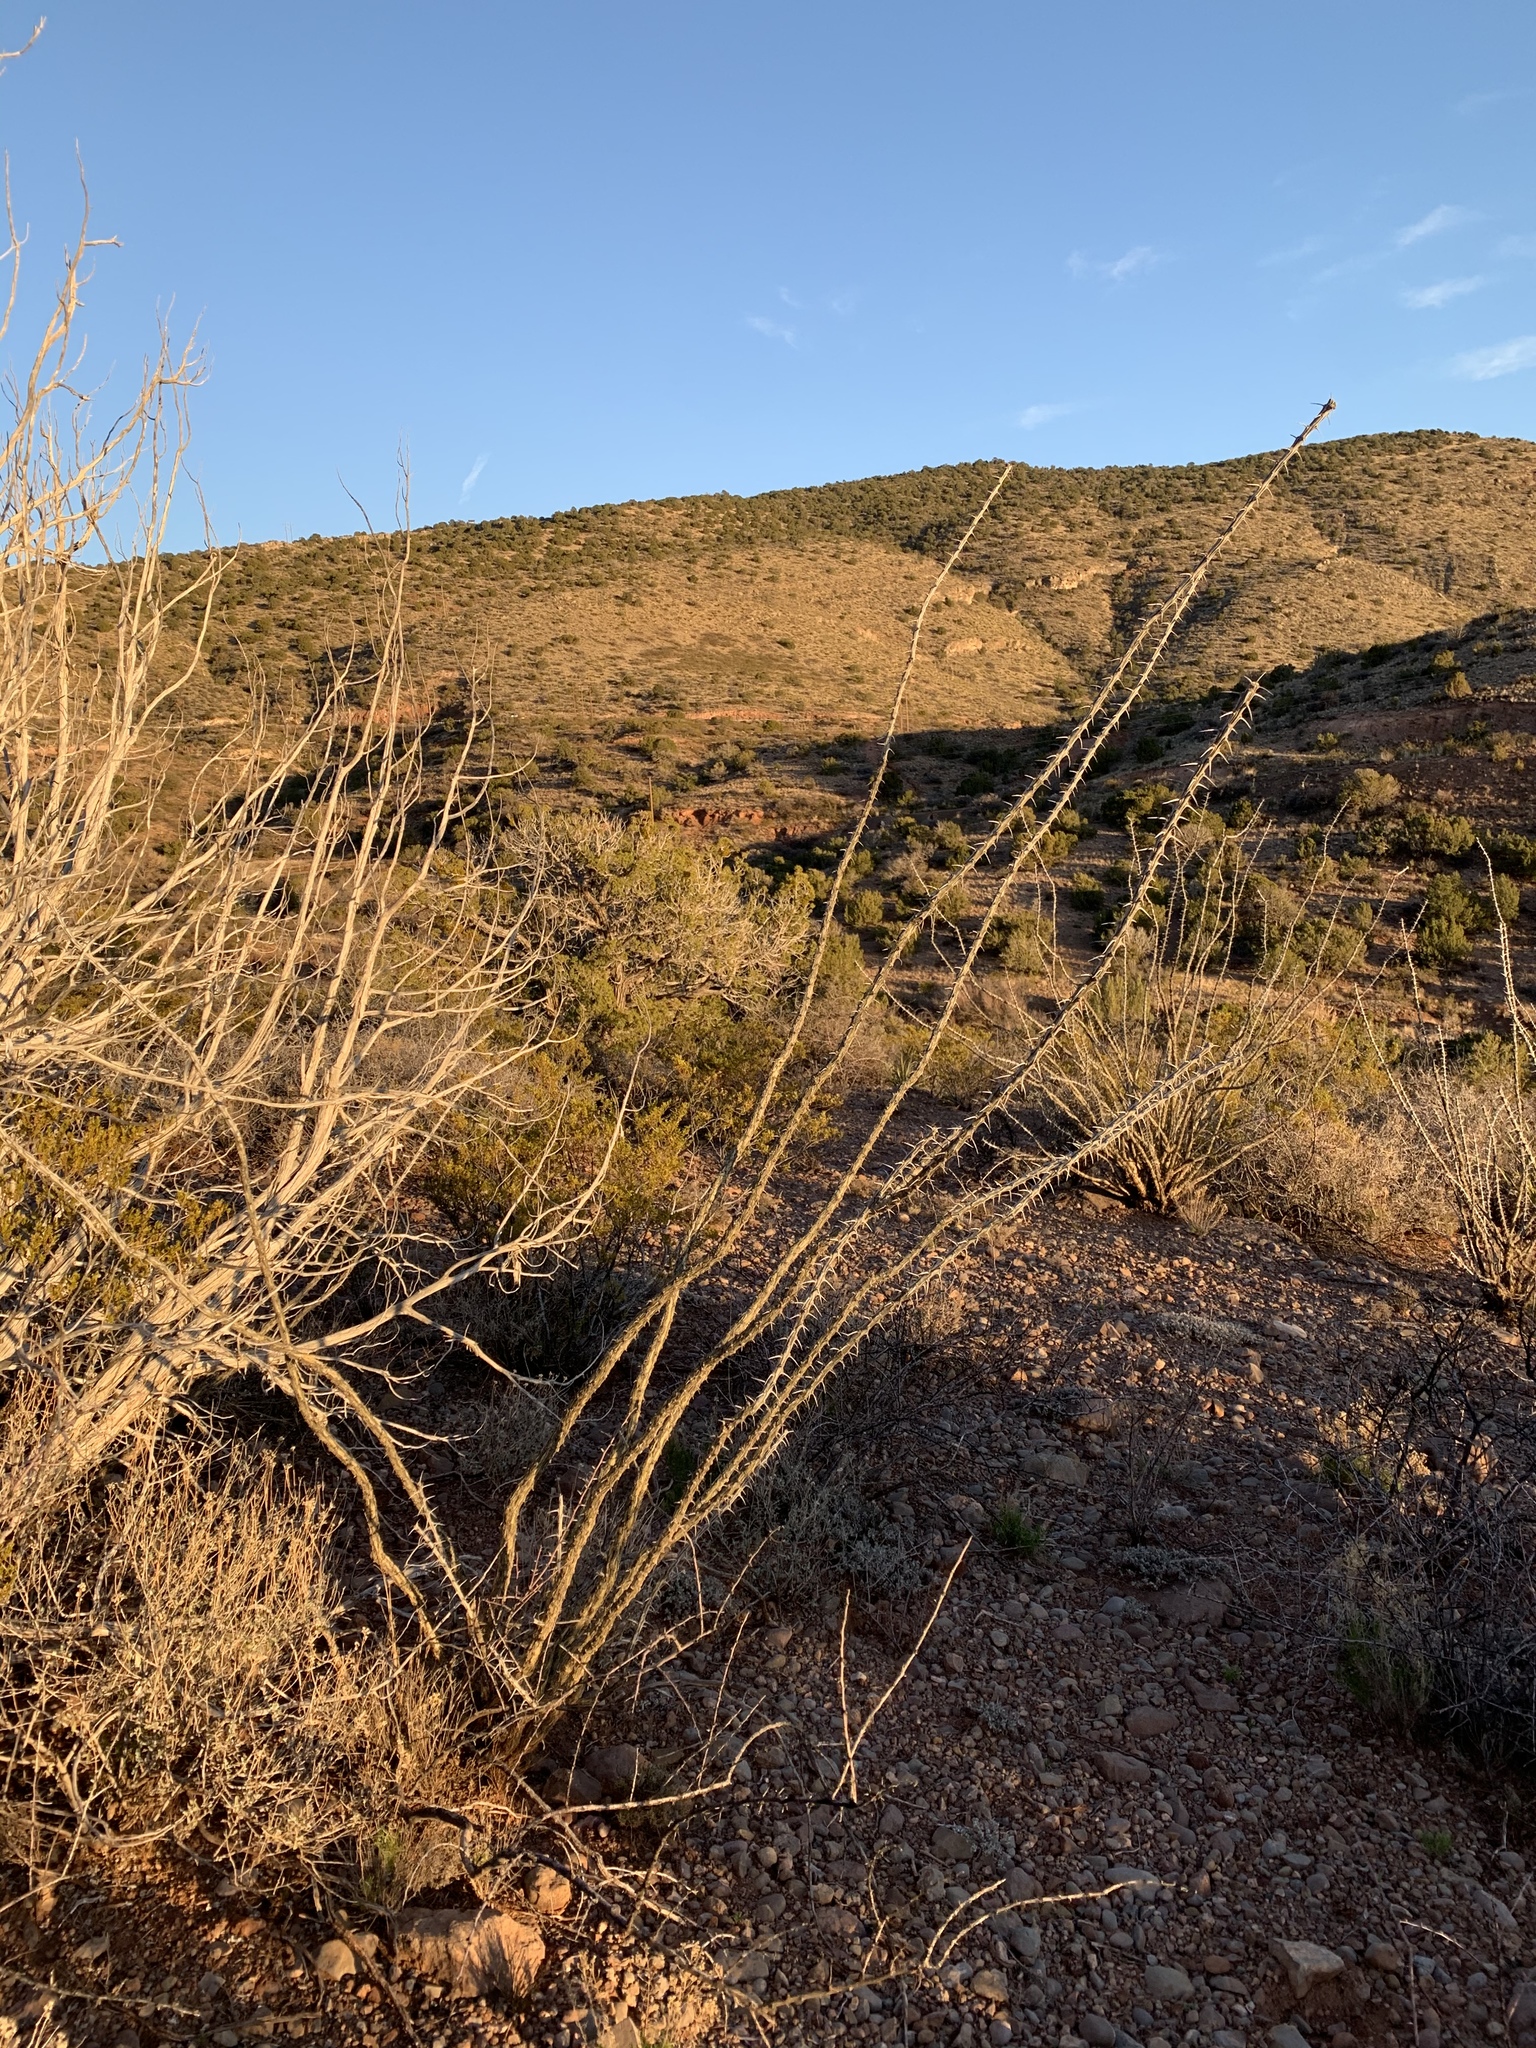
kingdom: Plantae
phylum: Tracheophyta
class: Magnoliopsida
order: Ericales
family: Fouquieriaceae
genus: Fouquieria
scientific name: Fouquieria splendens
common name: Vine-cactus
